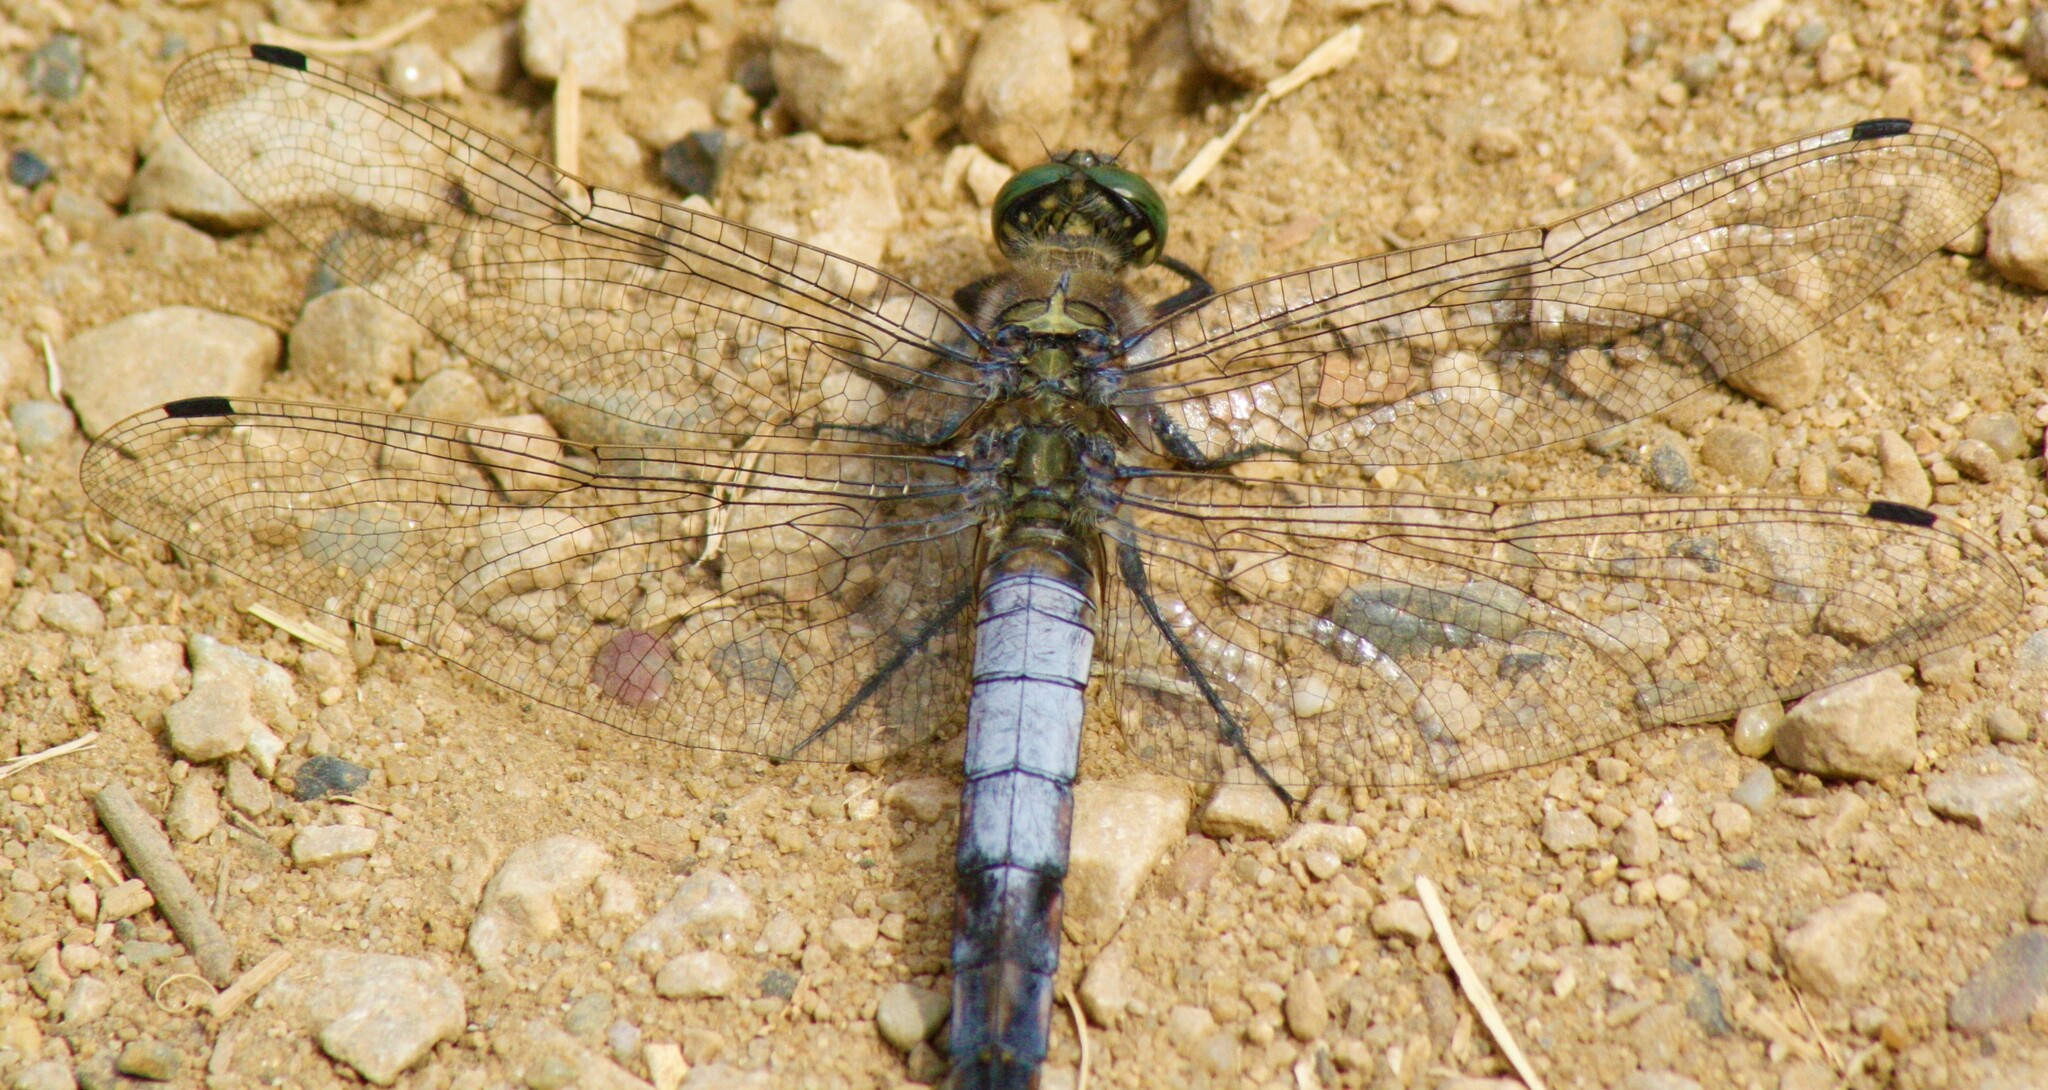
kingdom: Animalia
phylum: Arthropoda
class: Insecta
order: Odonata
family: Libellulidae
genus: Orthetrum
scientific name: Orthetrum cancellatum
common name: Black-tailed skimmer
